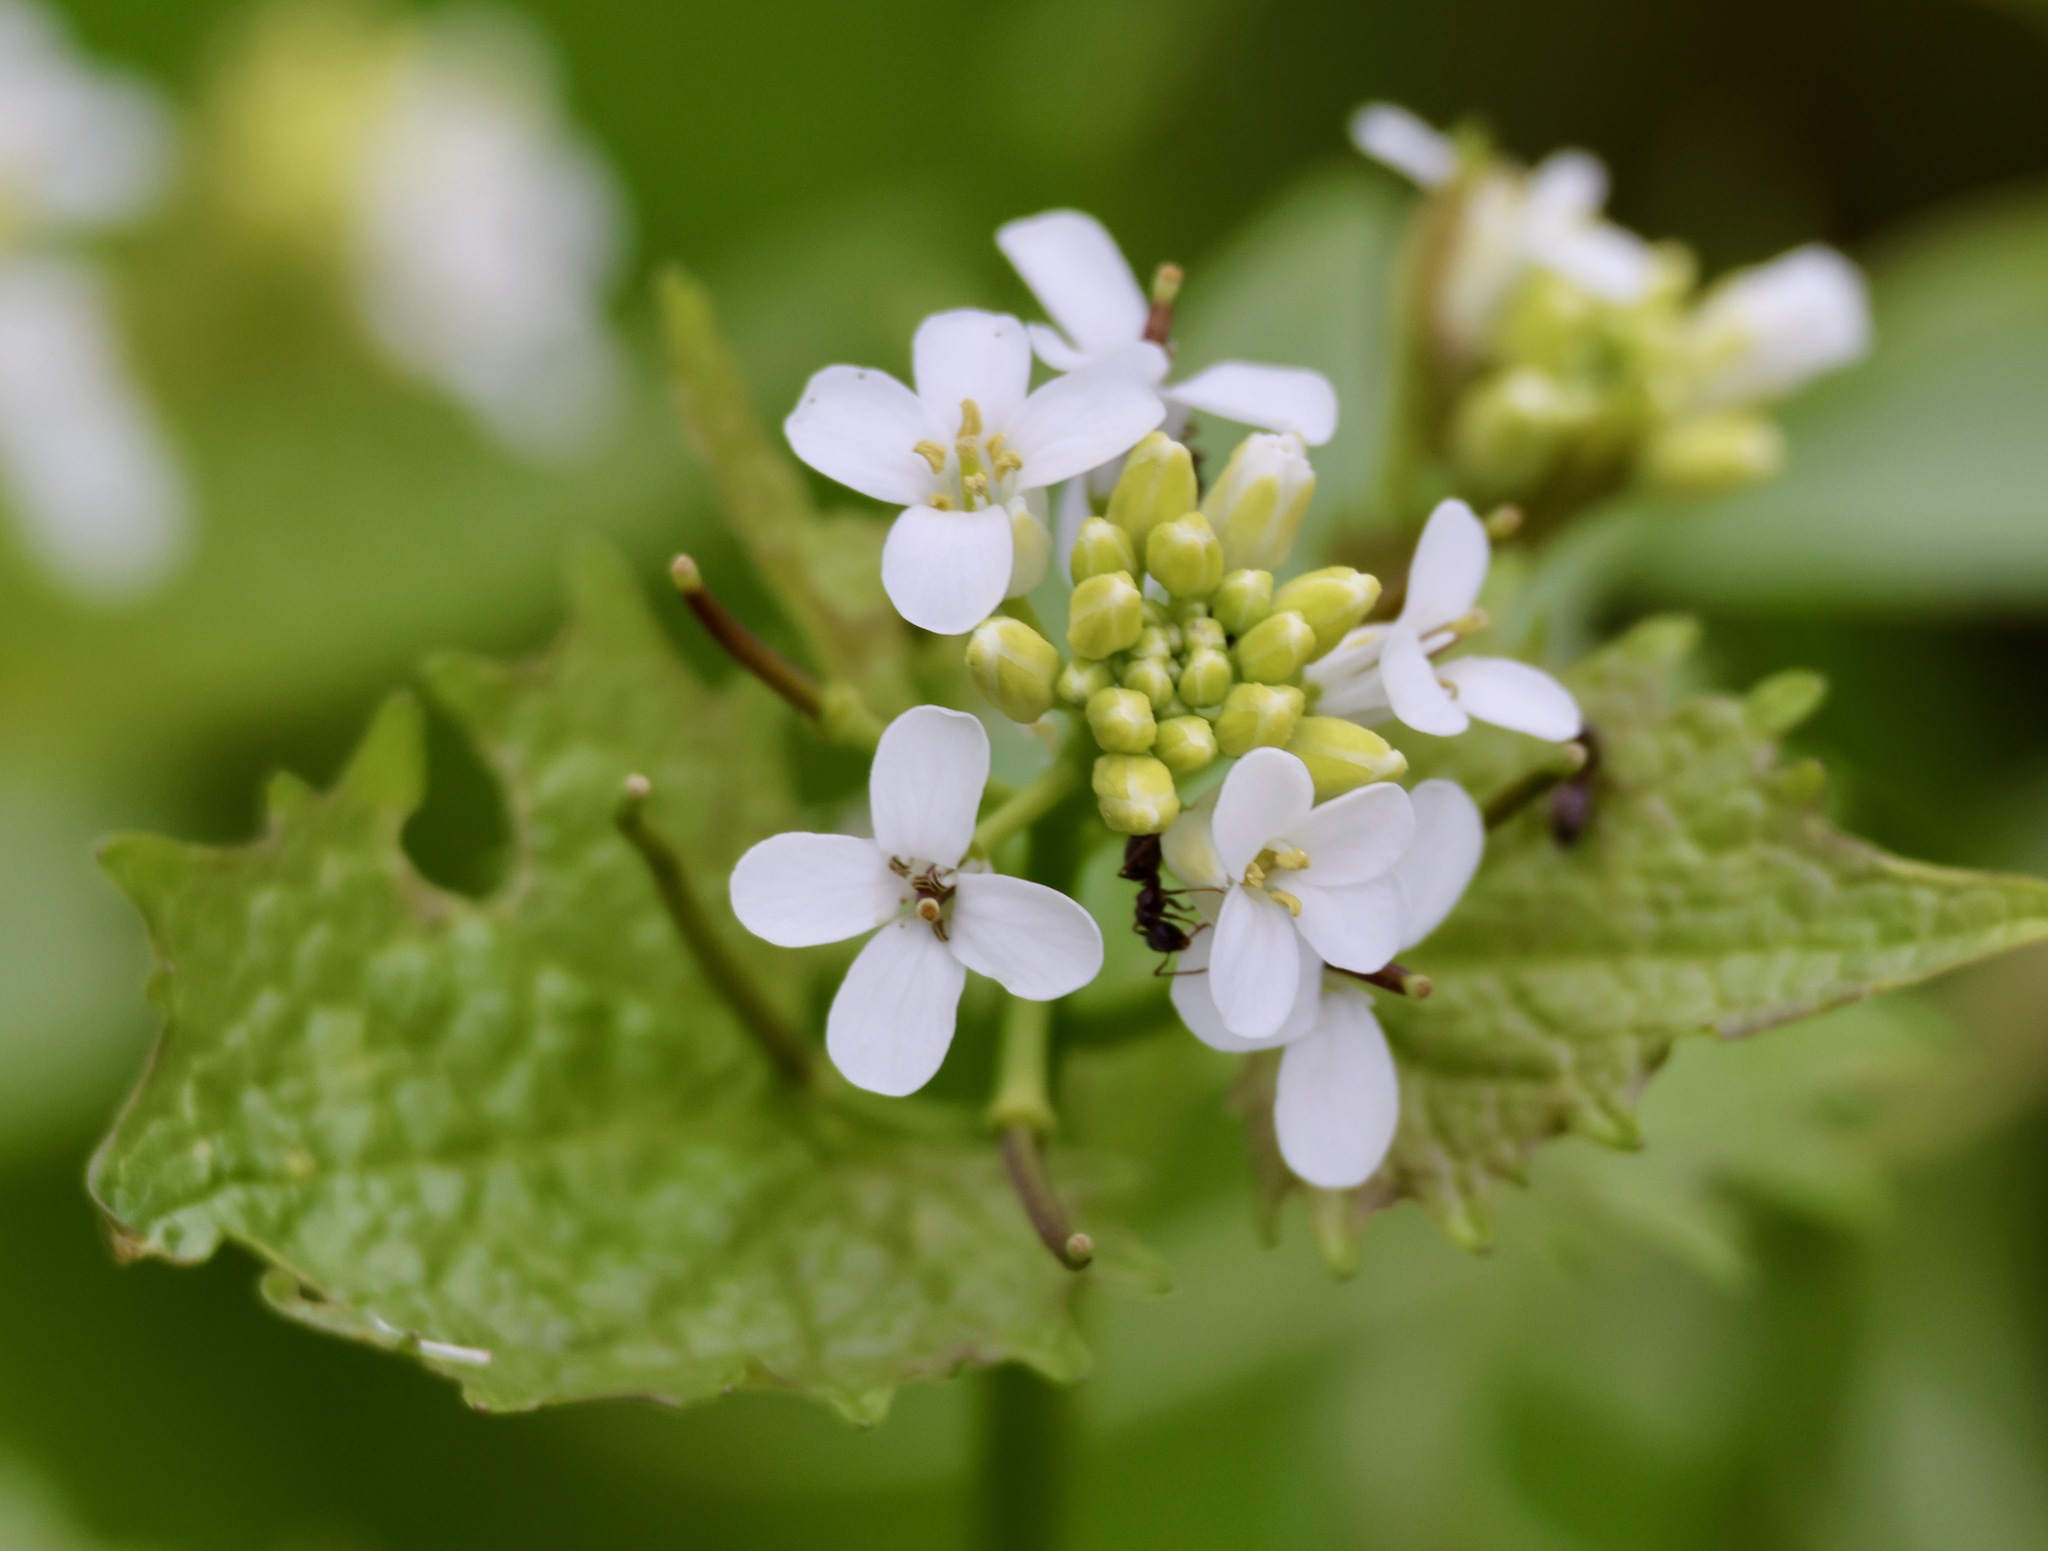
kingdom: Plantae
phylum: Tracheophyta
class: Magnoliopsida
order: Brassicales
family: Brassicaceae
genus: Alliaria
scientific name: Alliaria petiolata
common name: Garlic mustard
